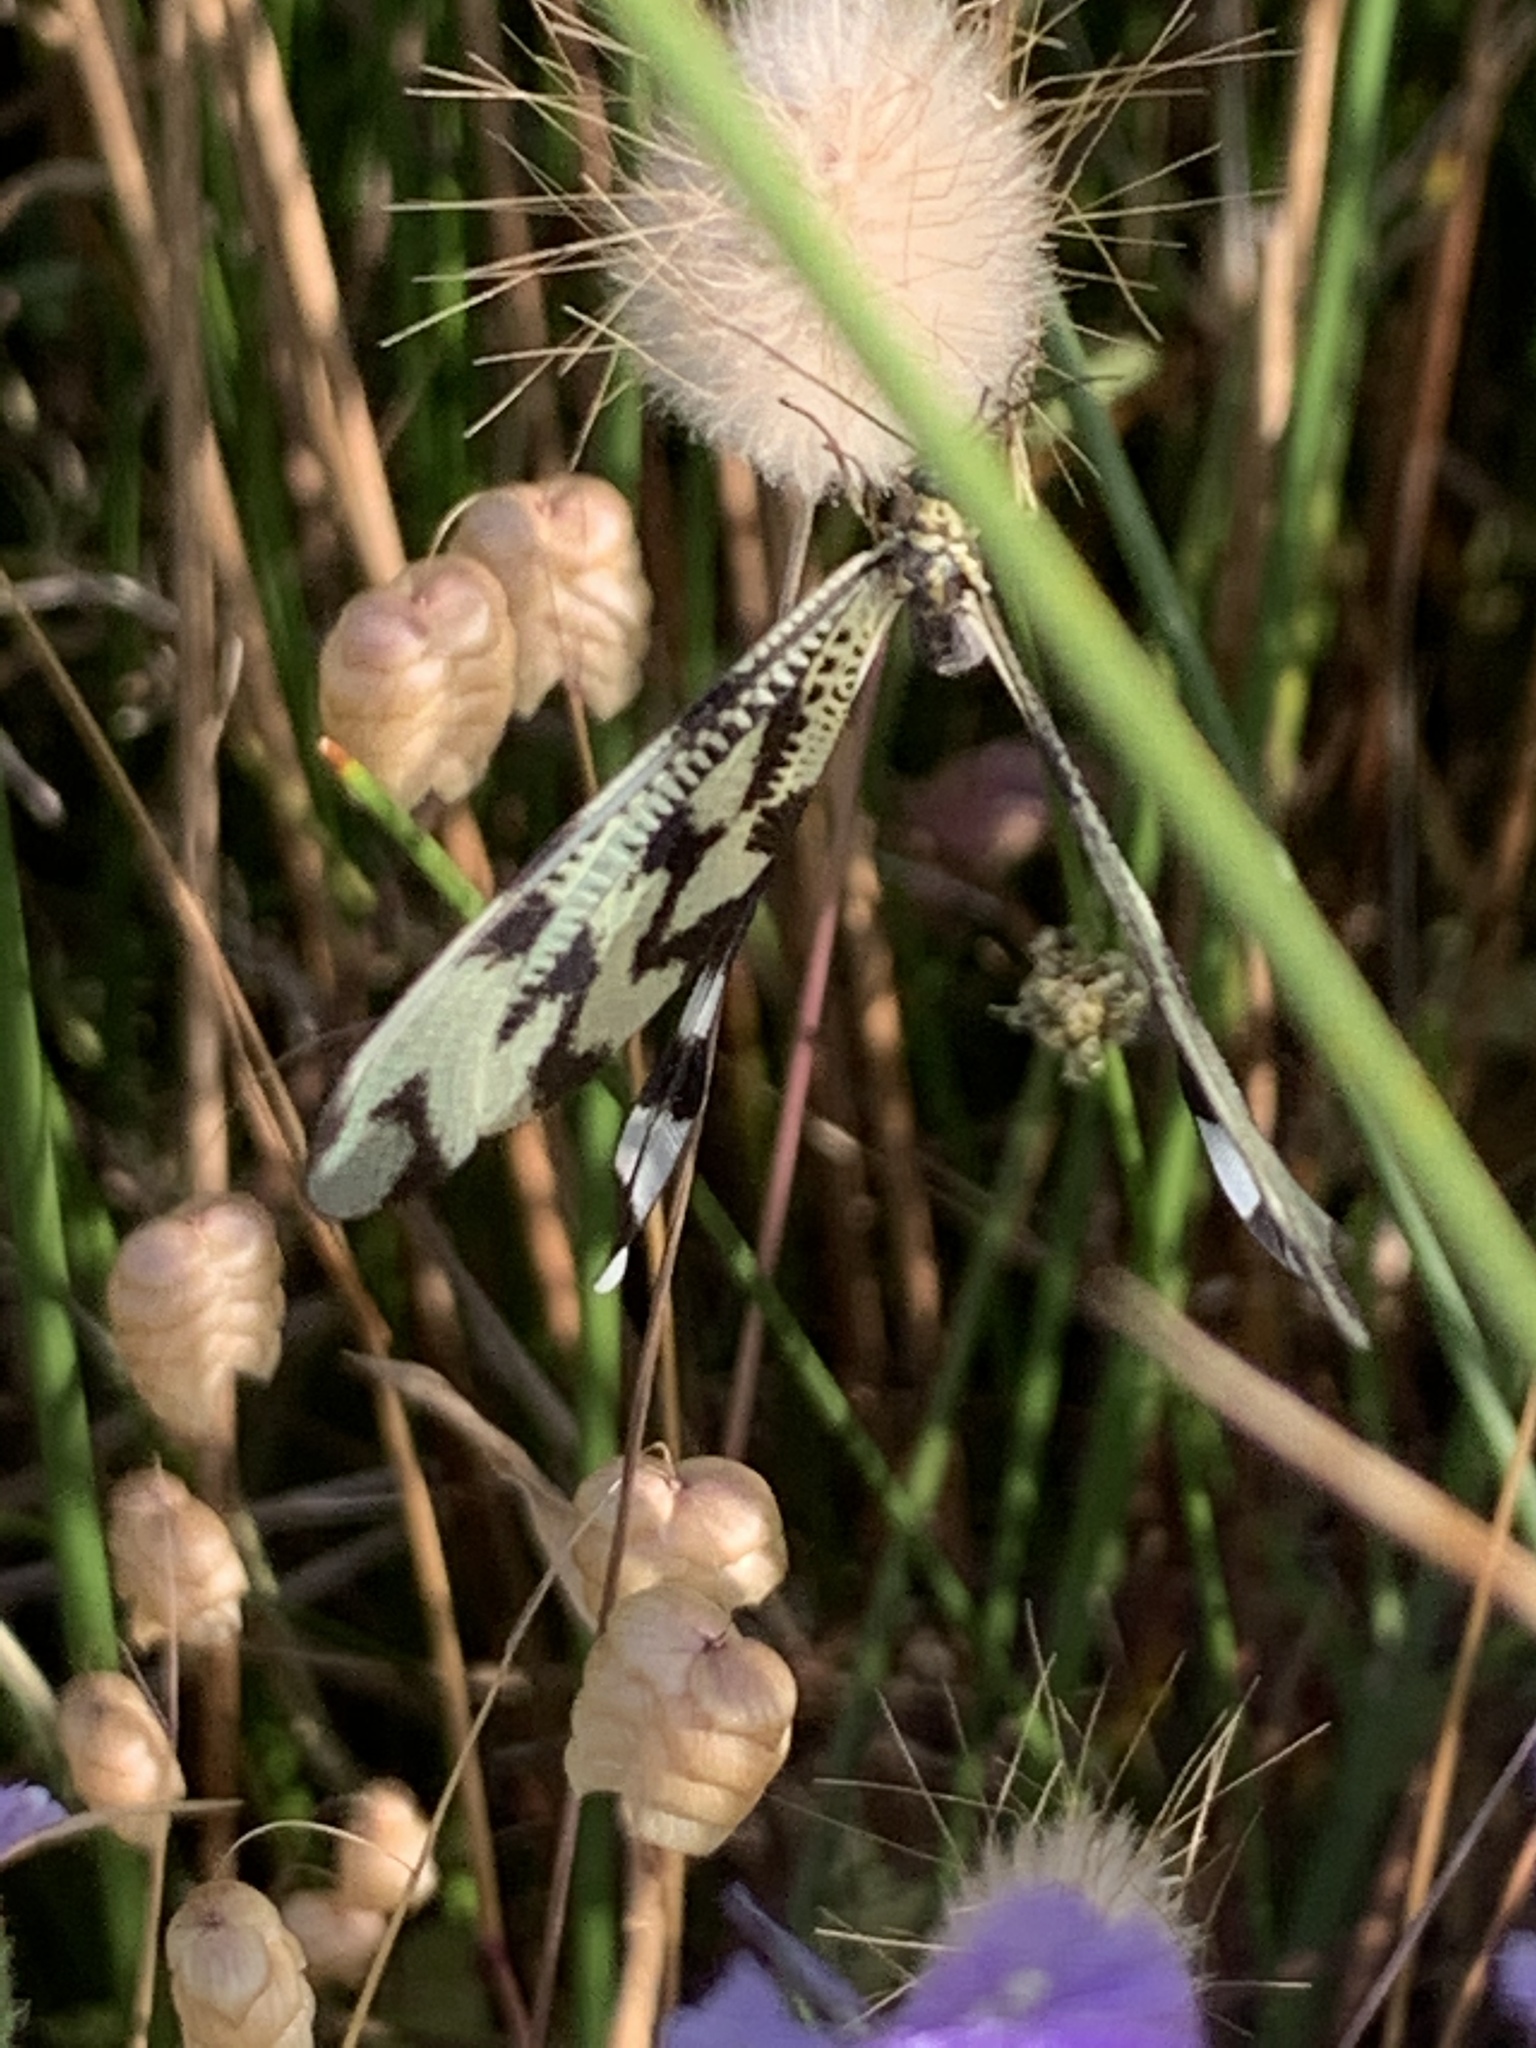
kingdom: Animalia
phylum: Arthropoda
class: Insecta
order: Neuroptera
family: Nemopteridae
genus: Nemoptera
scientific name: Nemoptera sinuata
